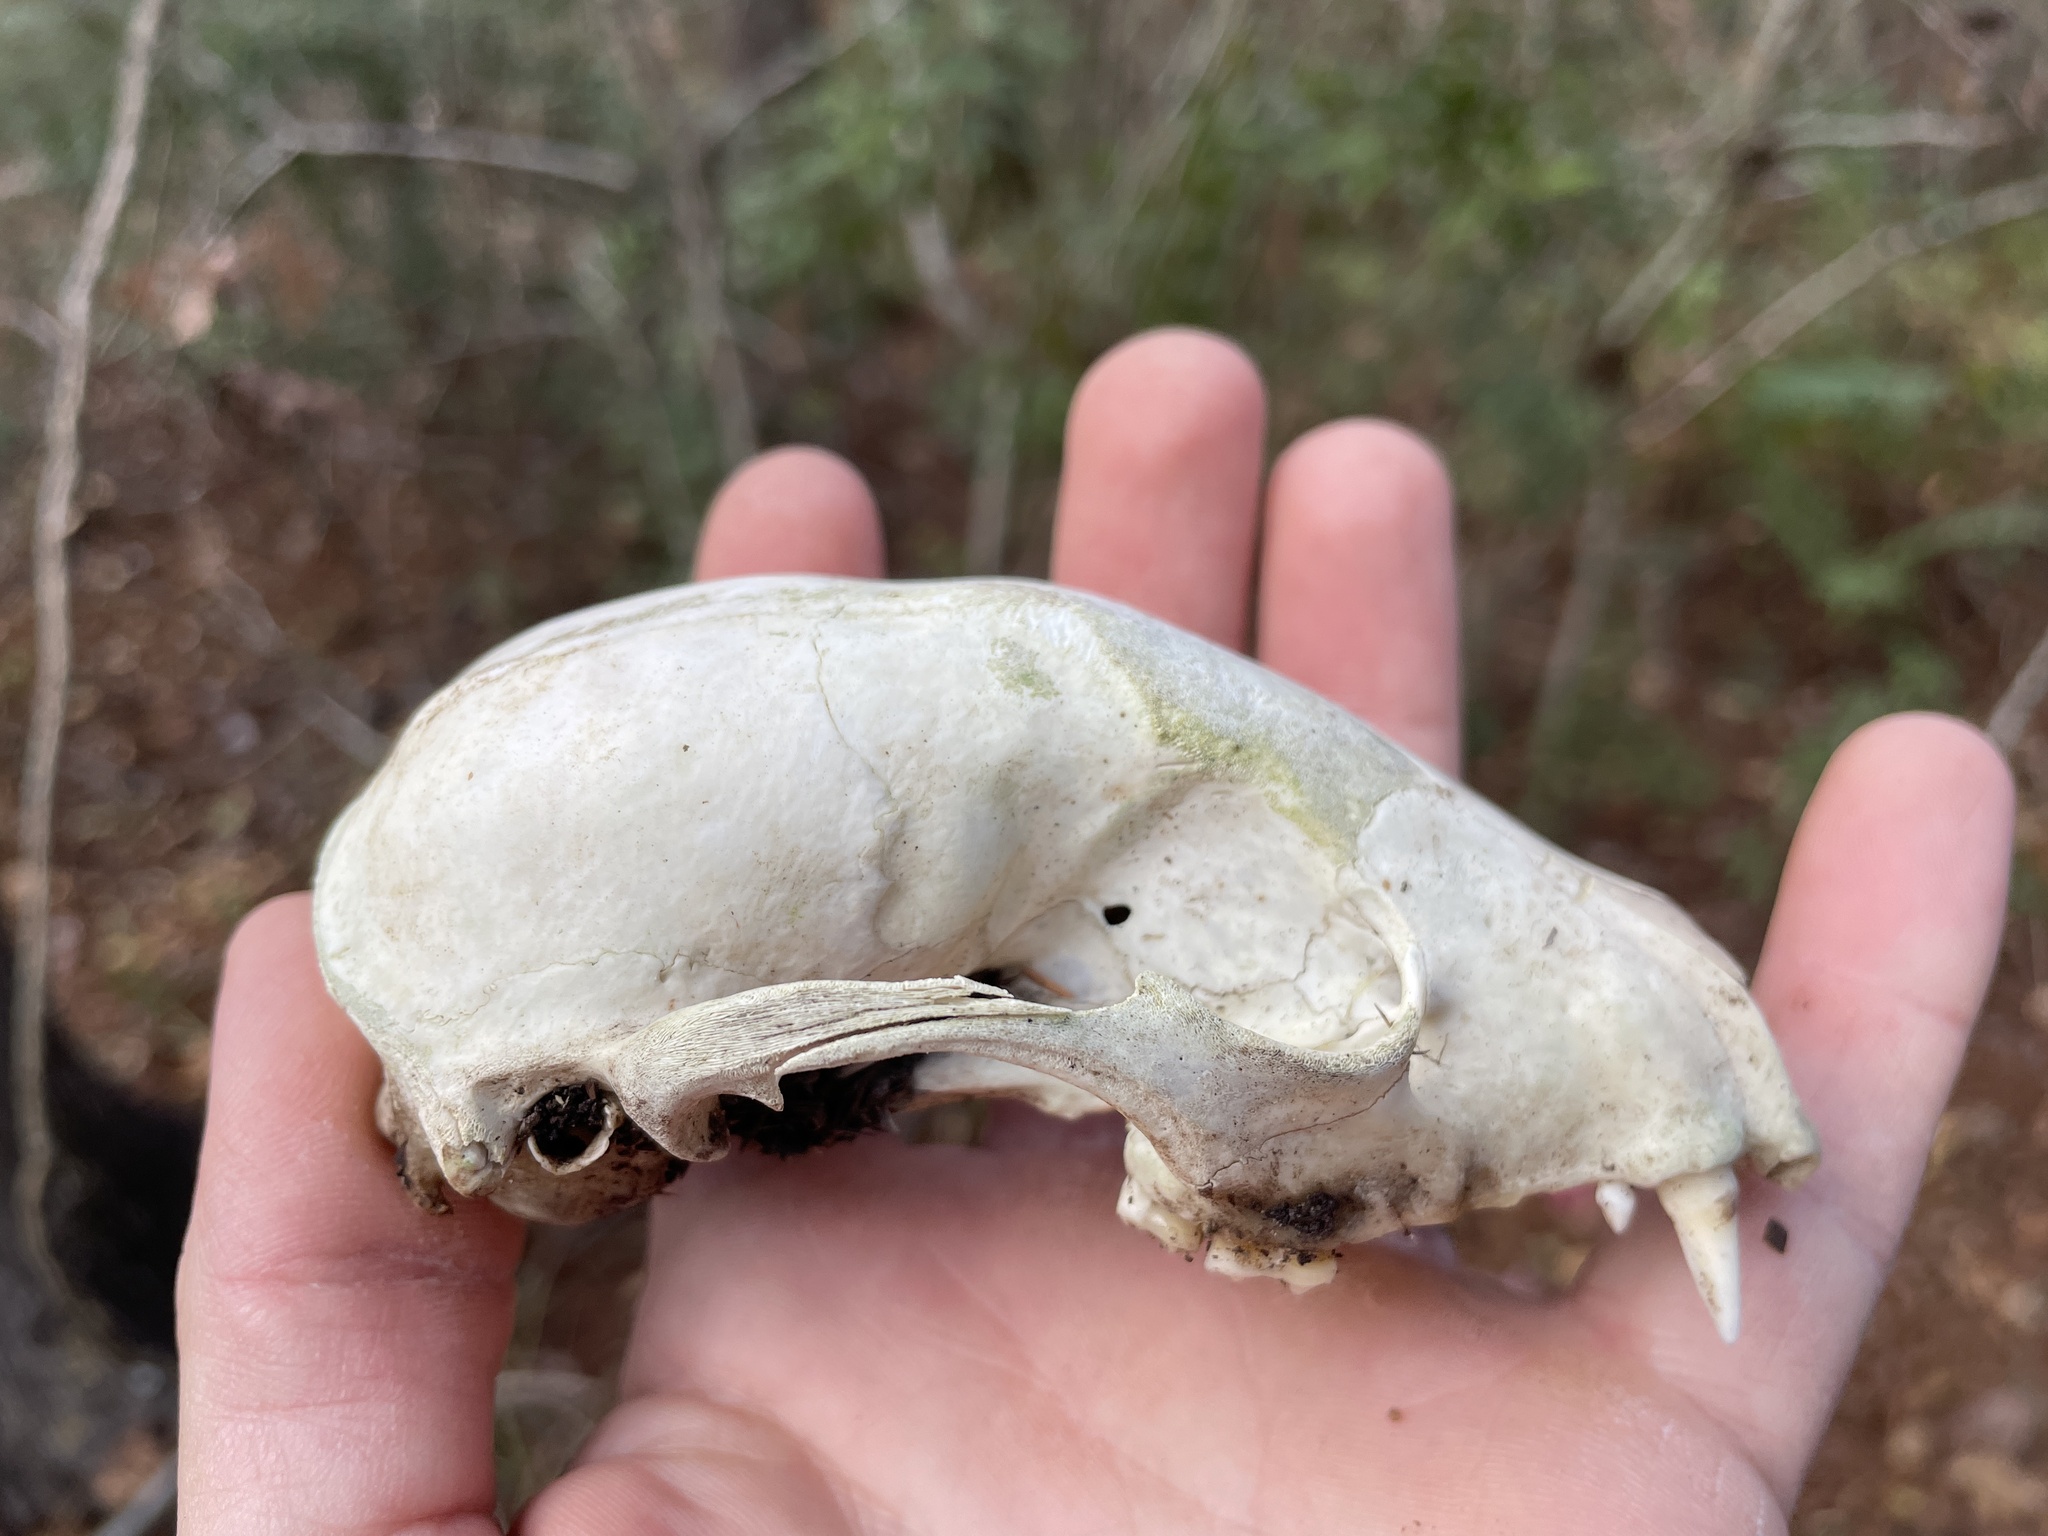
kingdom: Animalia
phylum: Chordata
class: Mammalia
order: Carnivora
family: Procyonidae
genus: Procyon
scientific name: Procyon lotor
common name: Raccoon
